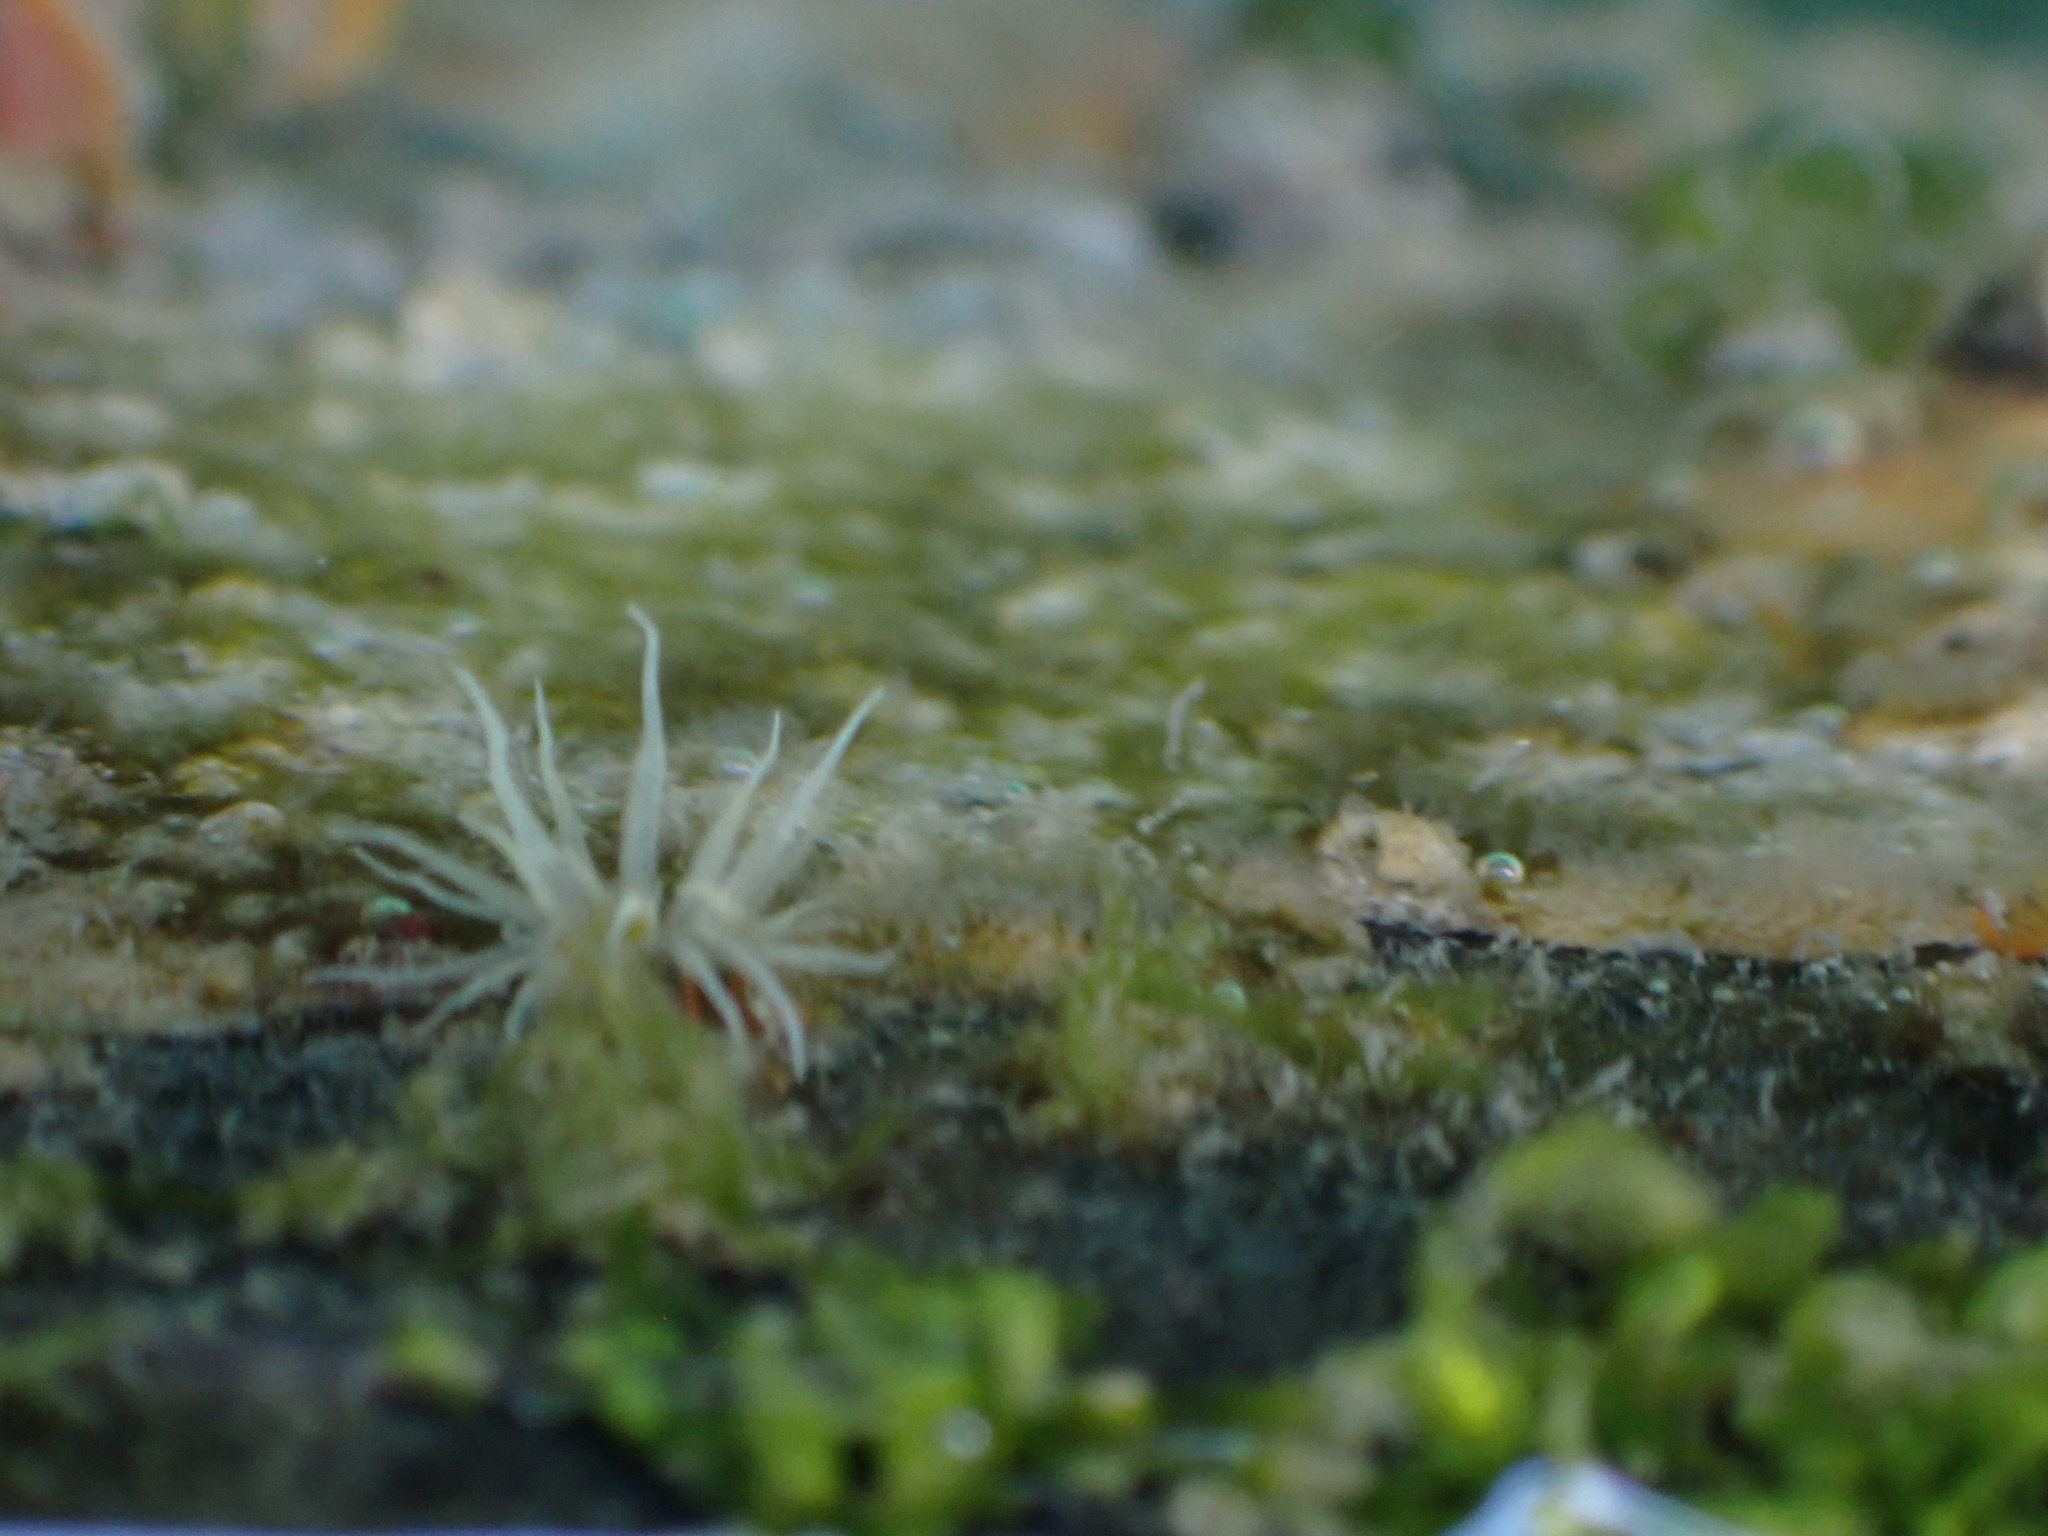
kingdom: Animalia
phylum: Cnidaria
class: Anthozoa
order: Actiniaria
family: Diadumenidae
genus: Diadumene
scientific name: Diadumene lineata
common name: Orange-striped anemone
